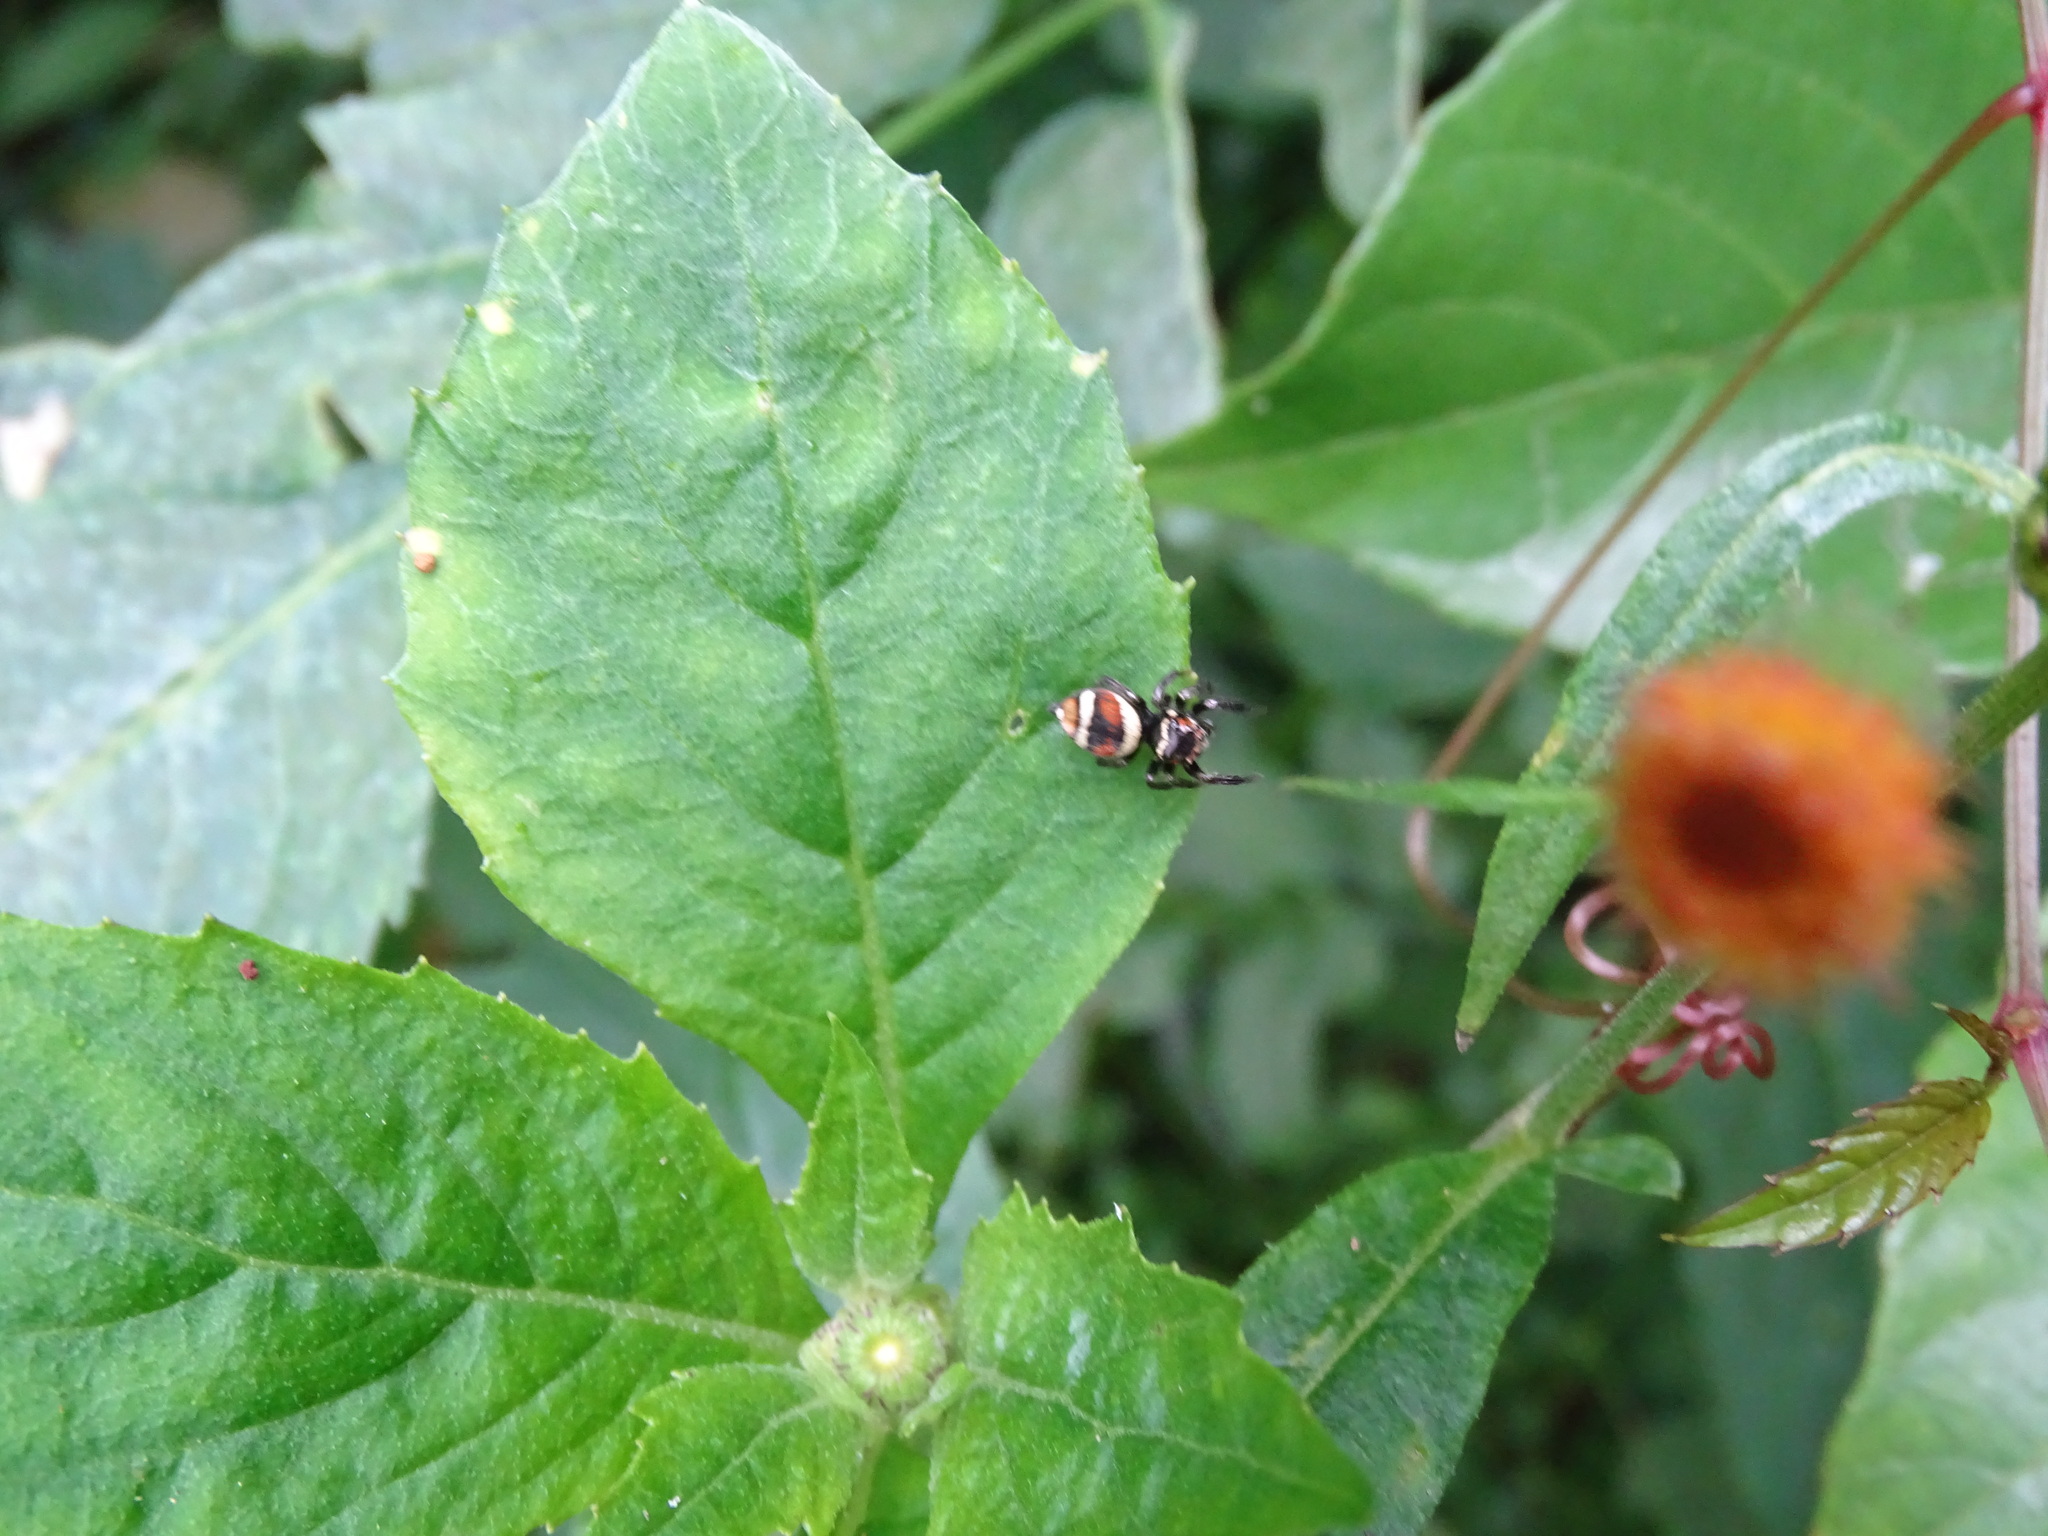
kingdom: Animalia
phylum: Arthropoda
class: Arachnida
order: Araneae
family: Salticidae
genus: Ptocasius
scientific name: Ptocasius strupifer
